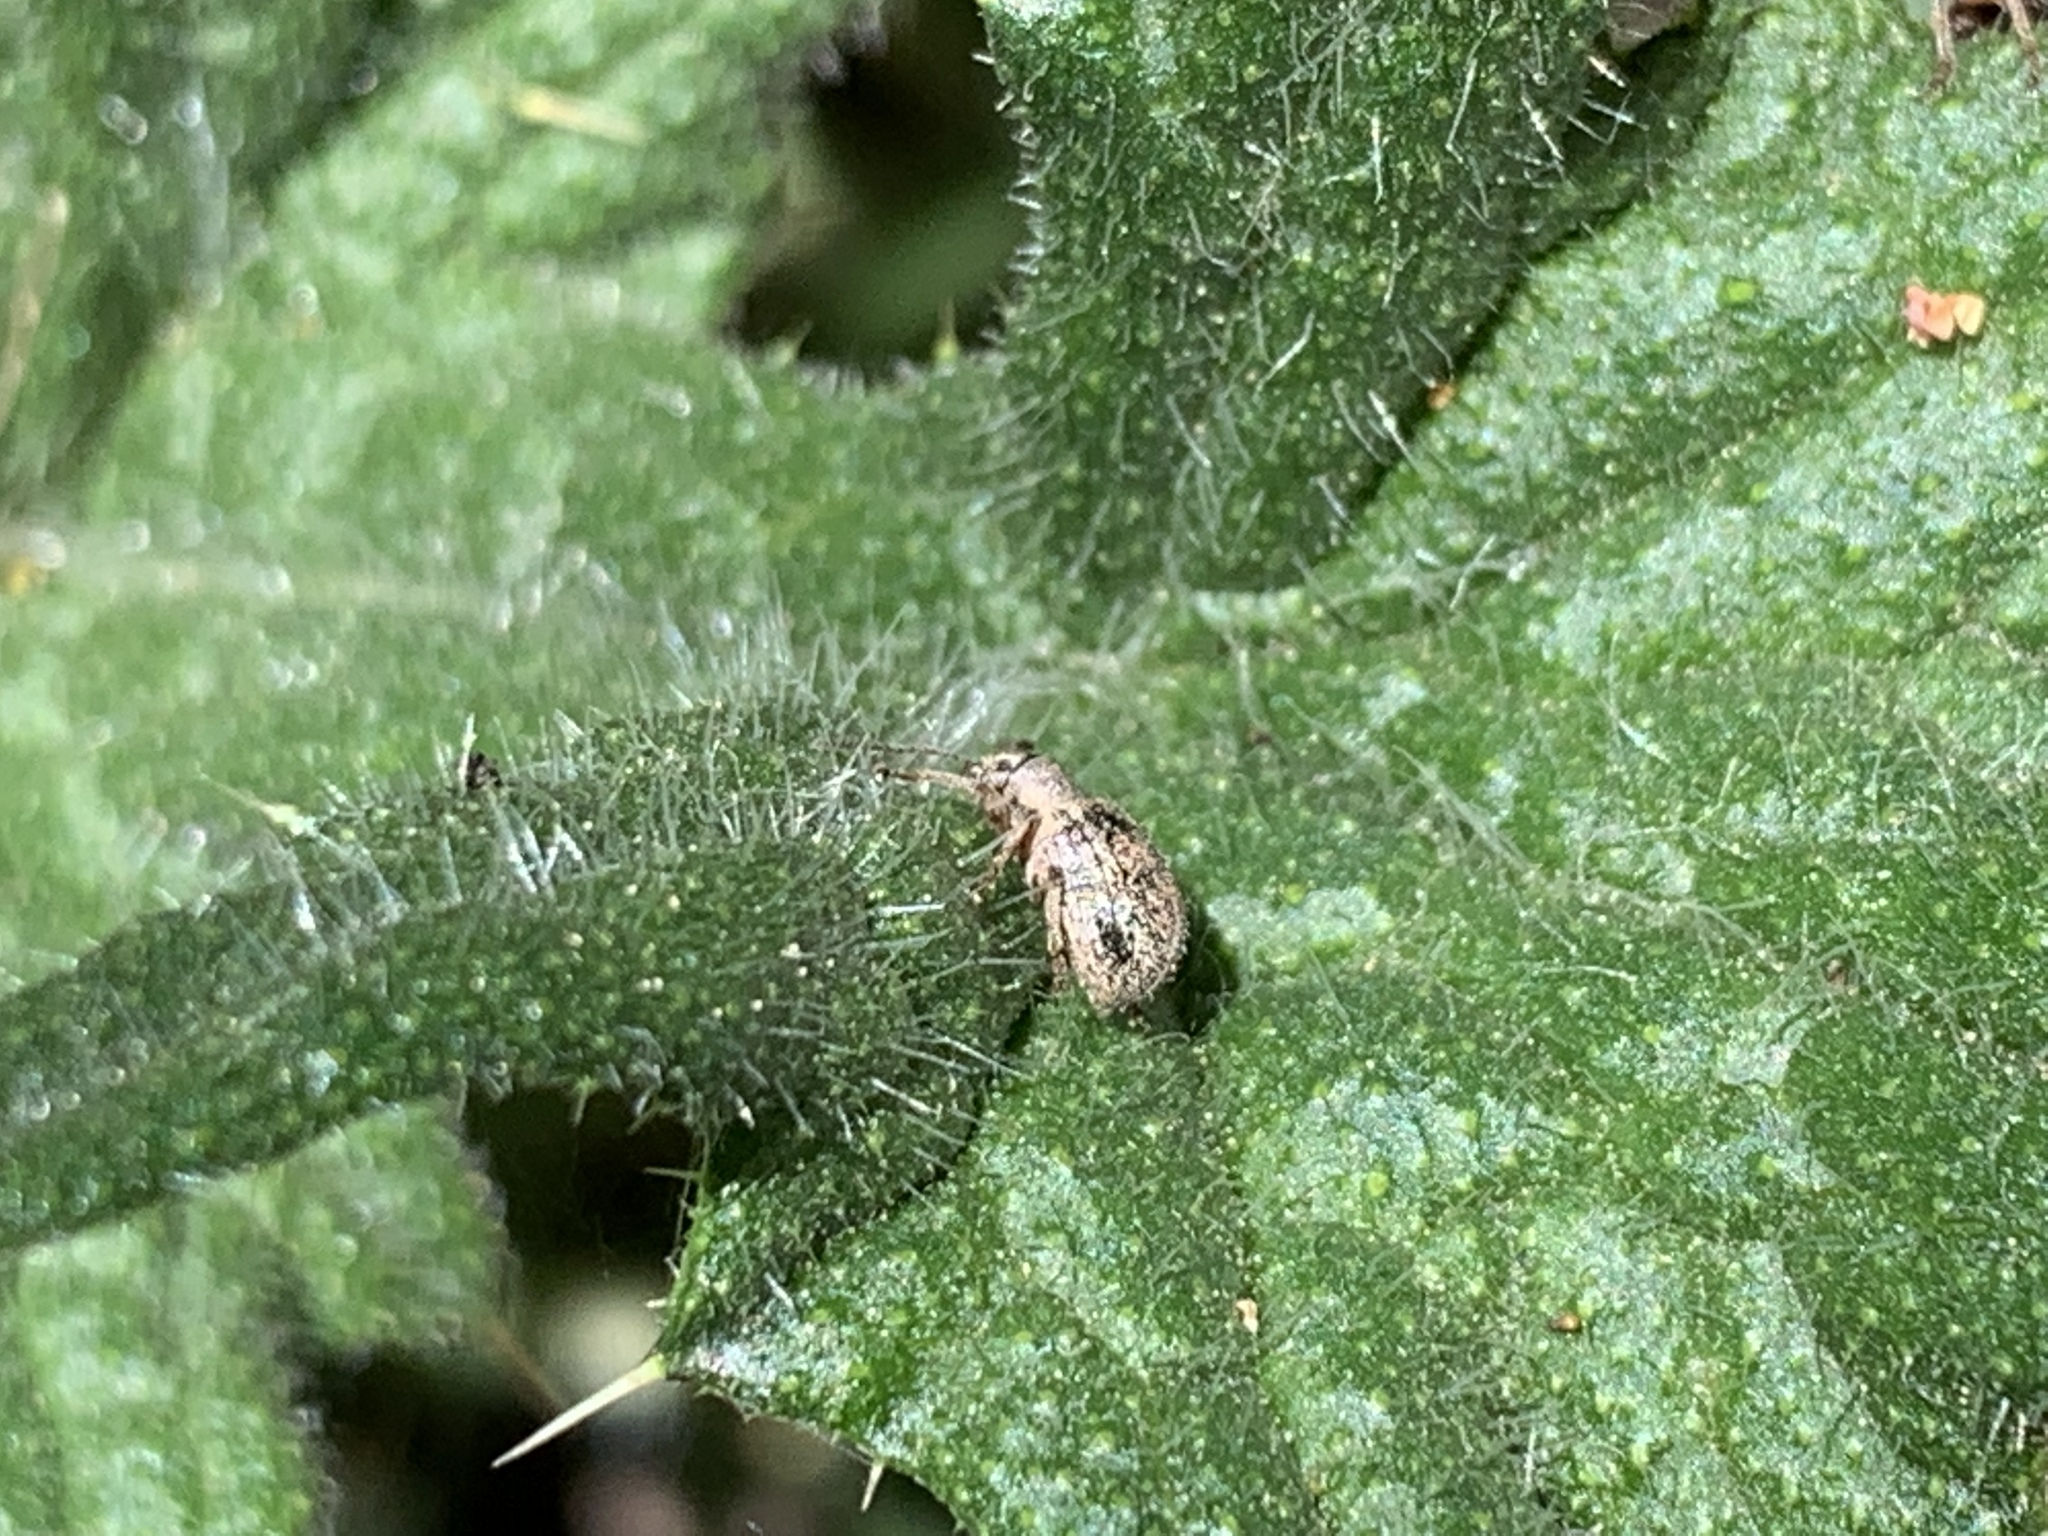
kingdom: Animalia
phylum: Arthropoda
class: Insecta
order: Coleoptera
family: Curculionidae
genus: Thricolepis
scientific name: Thricolepis inornata
